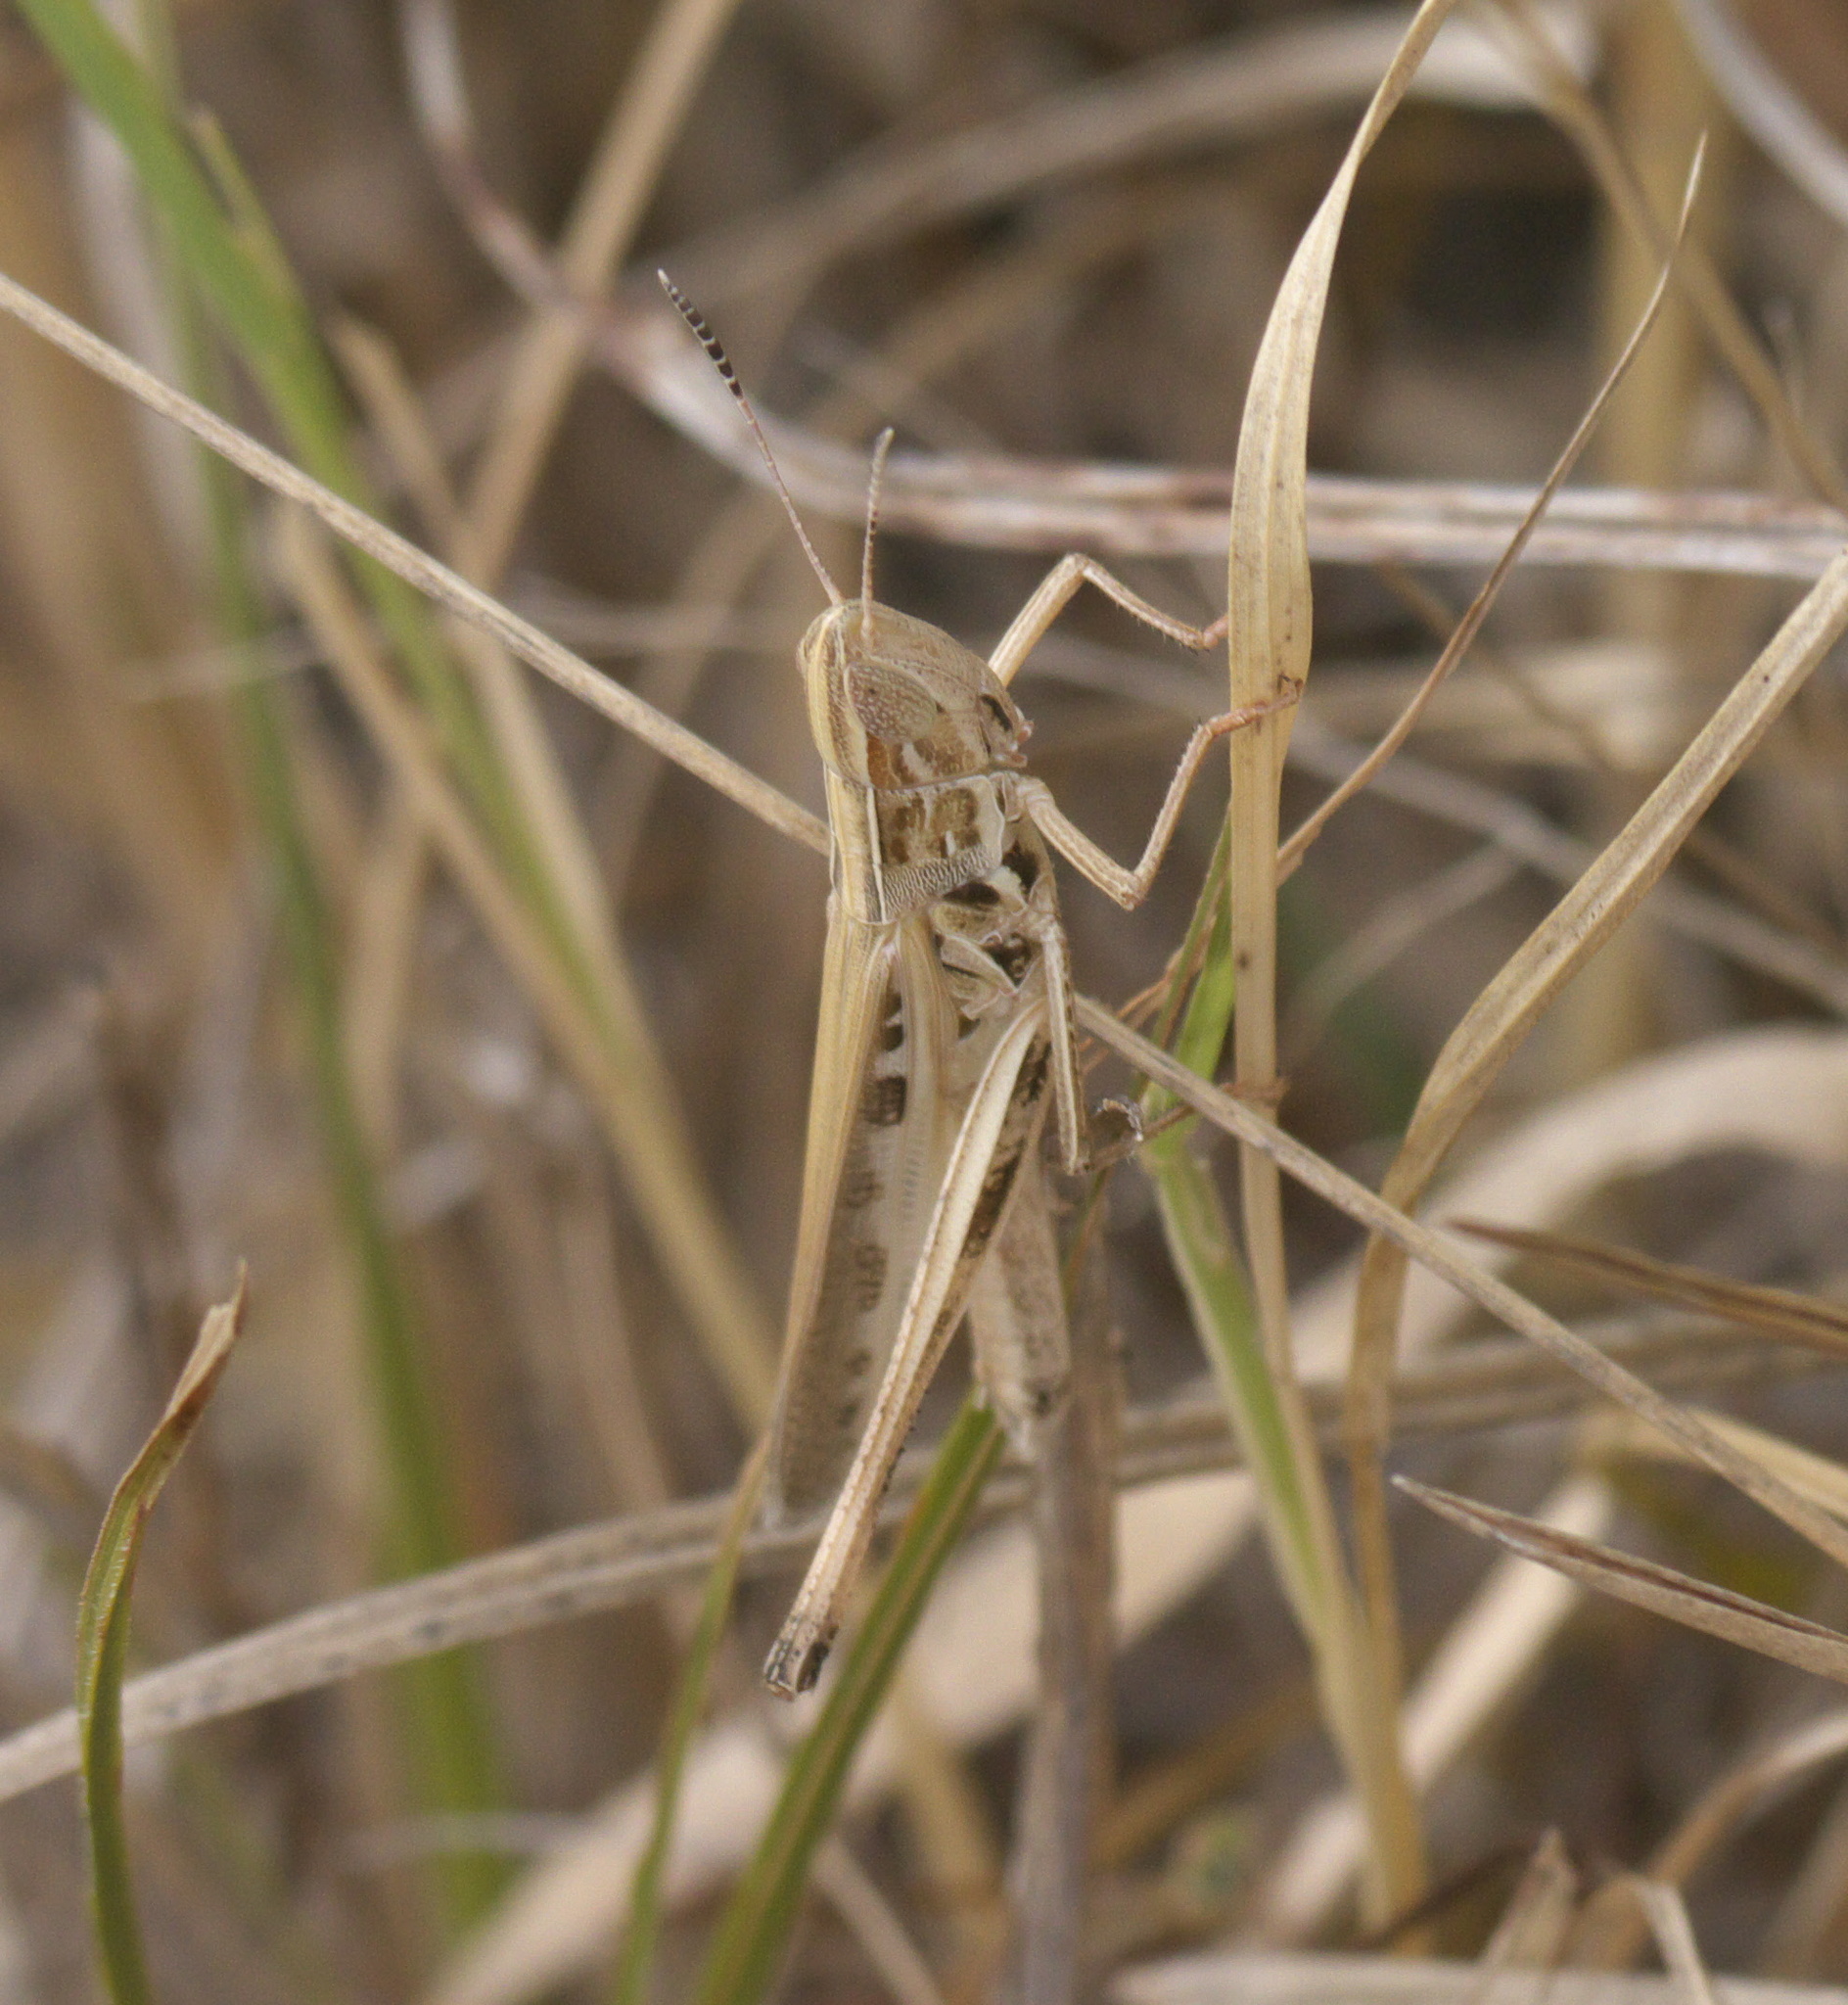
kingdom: Animalia
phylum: Arthropoda
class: Insecta
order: Orthoptera
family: Acrididae
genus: Syrbula
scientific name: Syrbula admirabilis
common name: Handsome grasshopper
